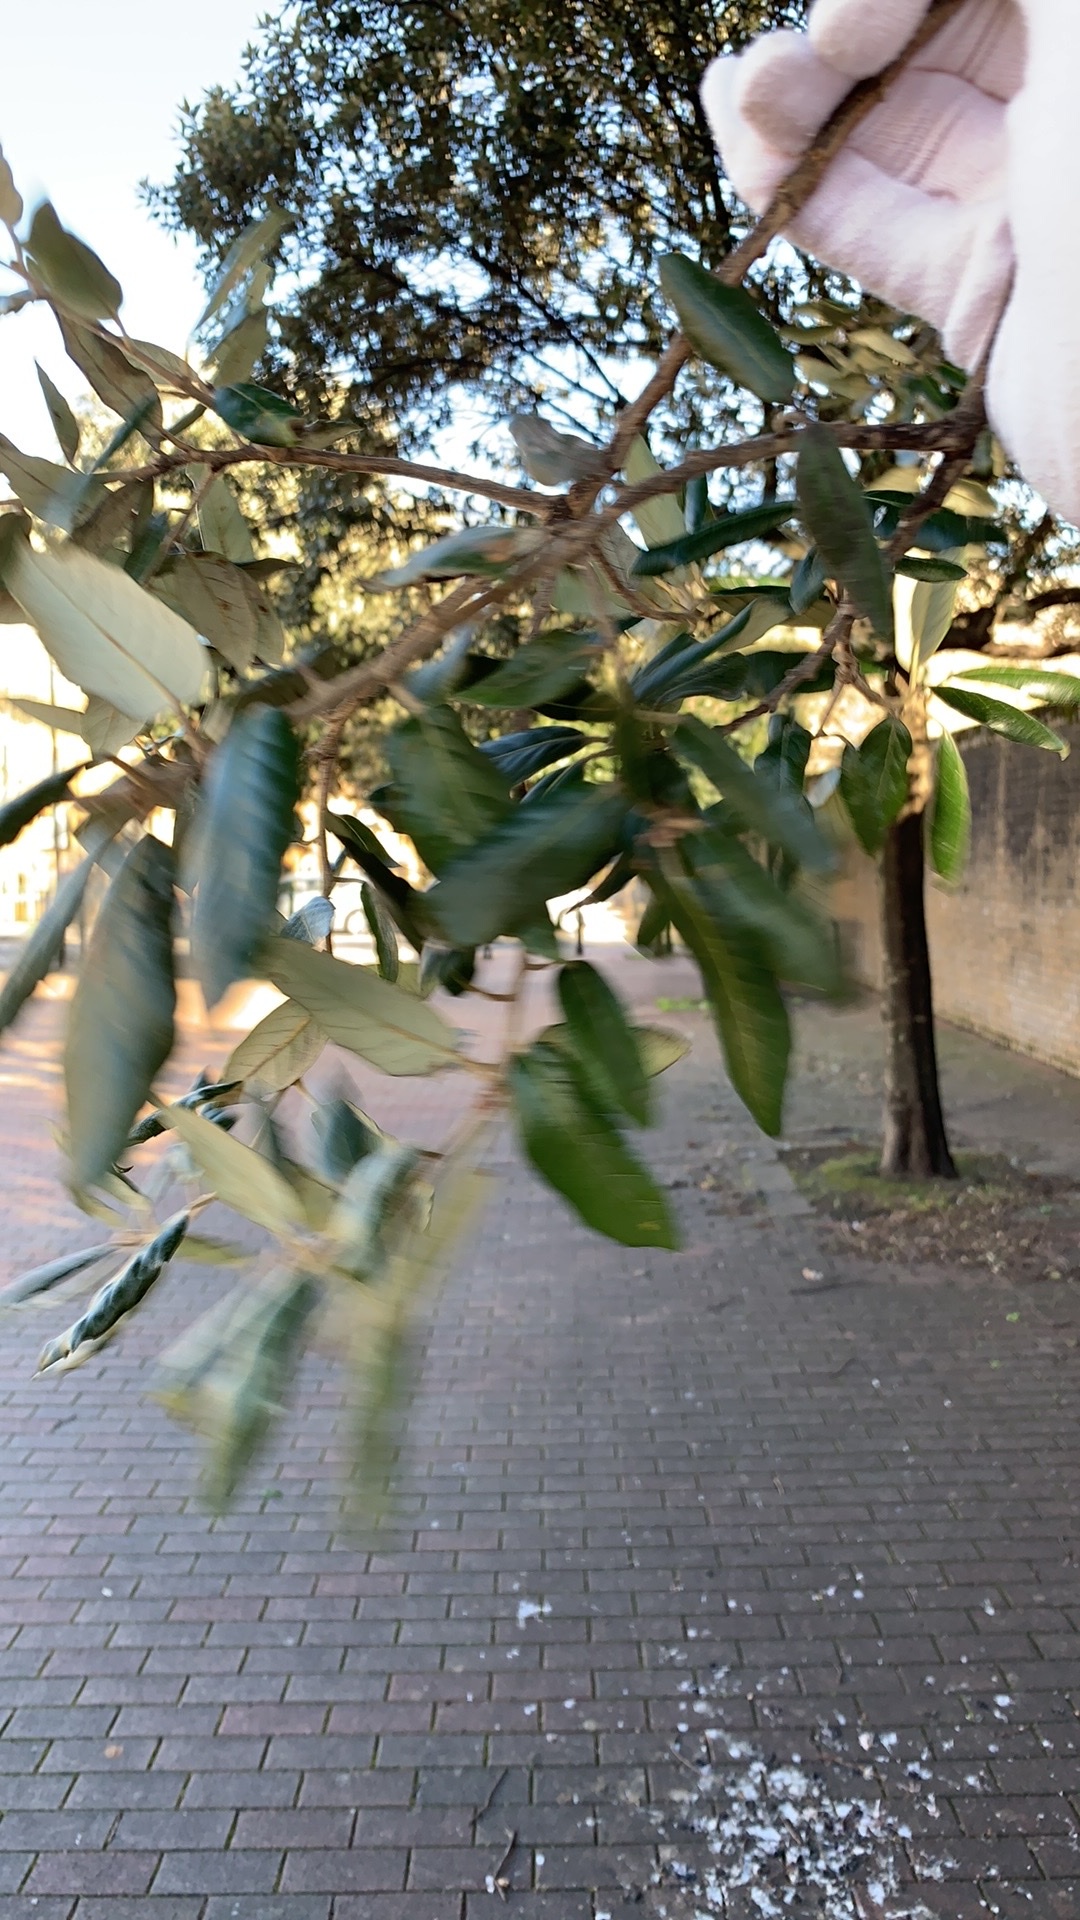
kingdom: Plantae
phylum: Tracheophyta
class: Magnoliopsida
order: Fagales
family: Fagaceae
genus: Quercus
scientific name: Quercus ilex
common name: Evergreen oak
